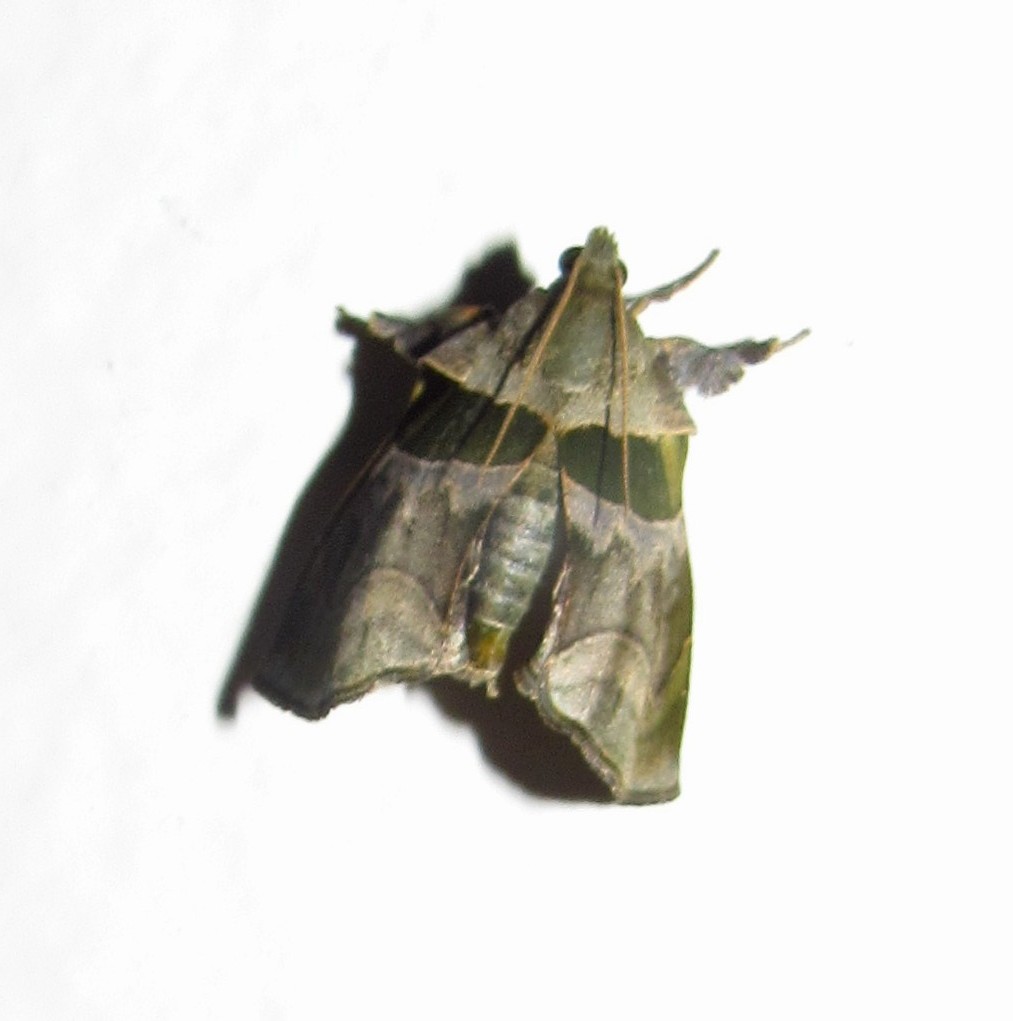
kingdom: Animalia
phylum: Arthropoda
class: Insecta
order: Lepidoptera
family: Pyralidae
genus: Azamora
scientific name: Azamora sororia
